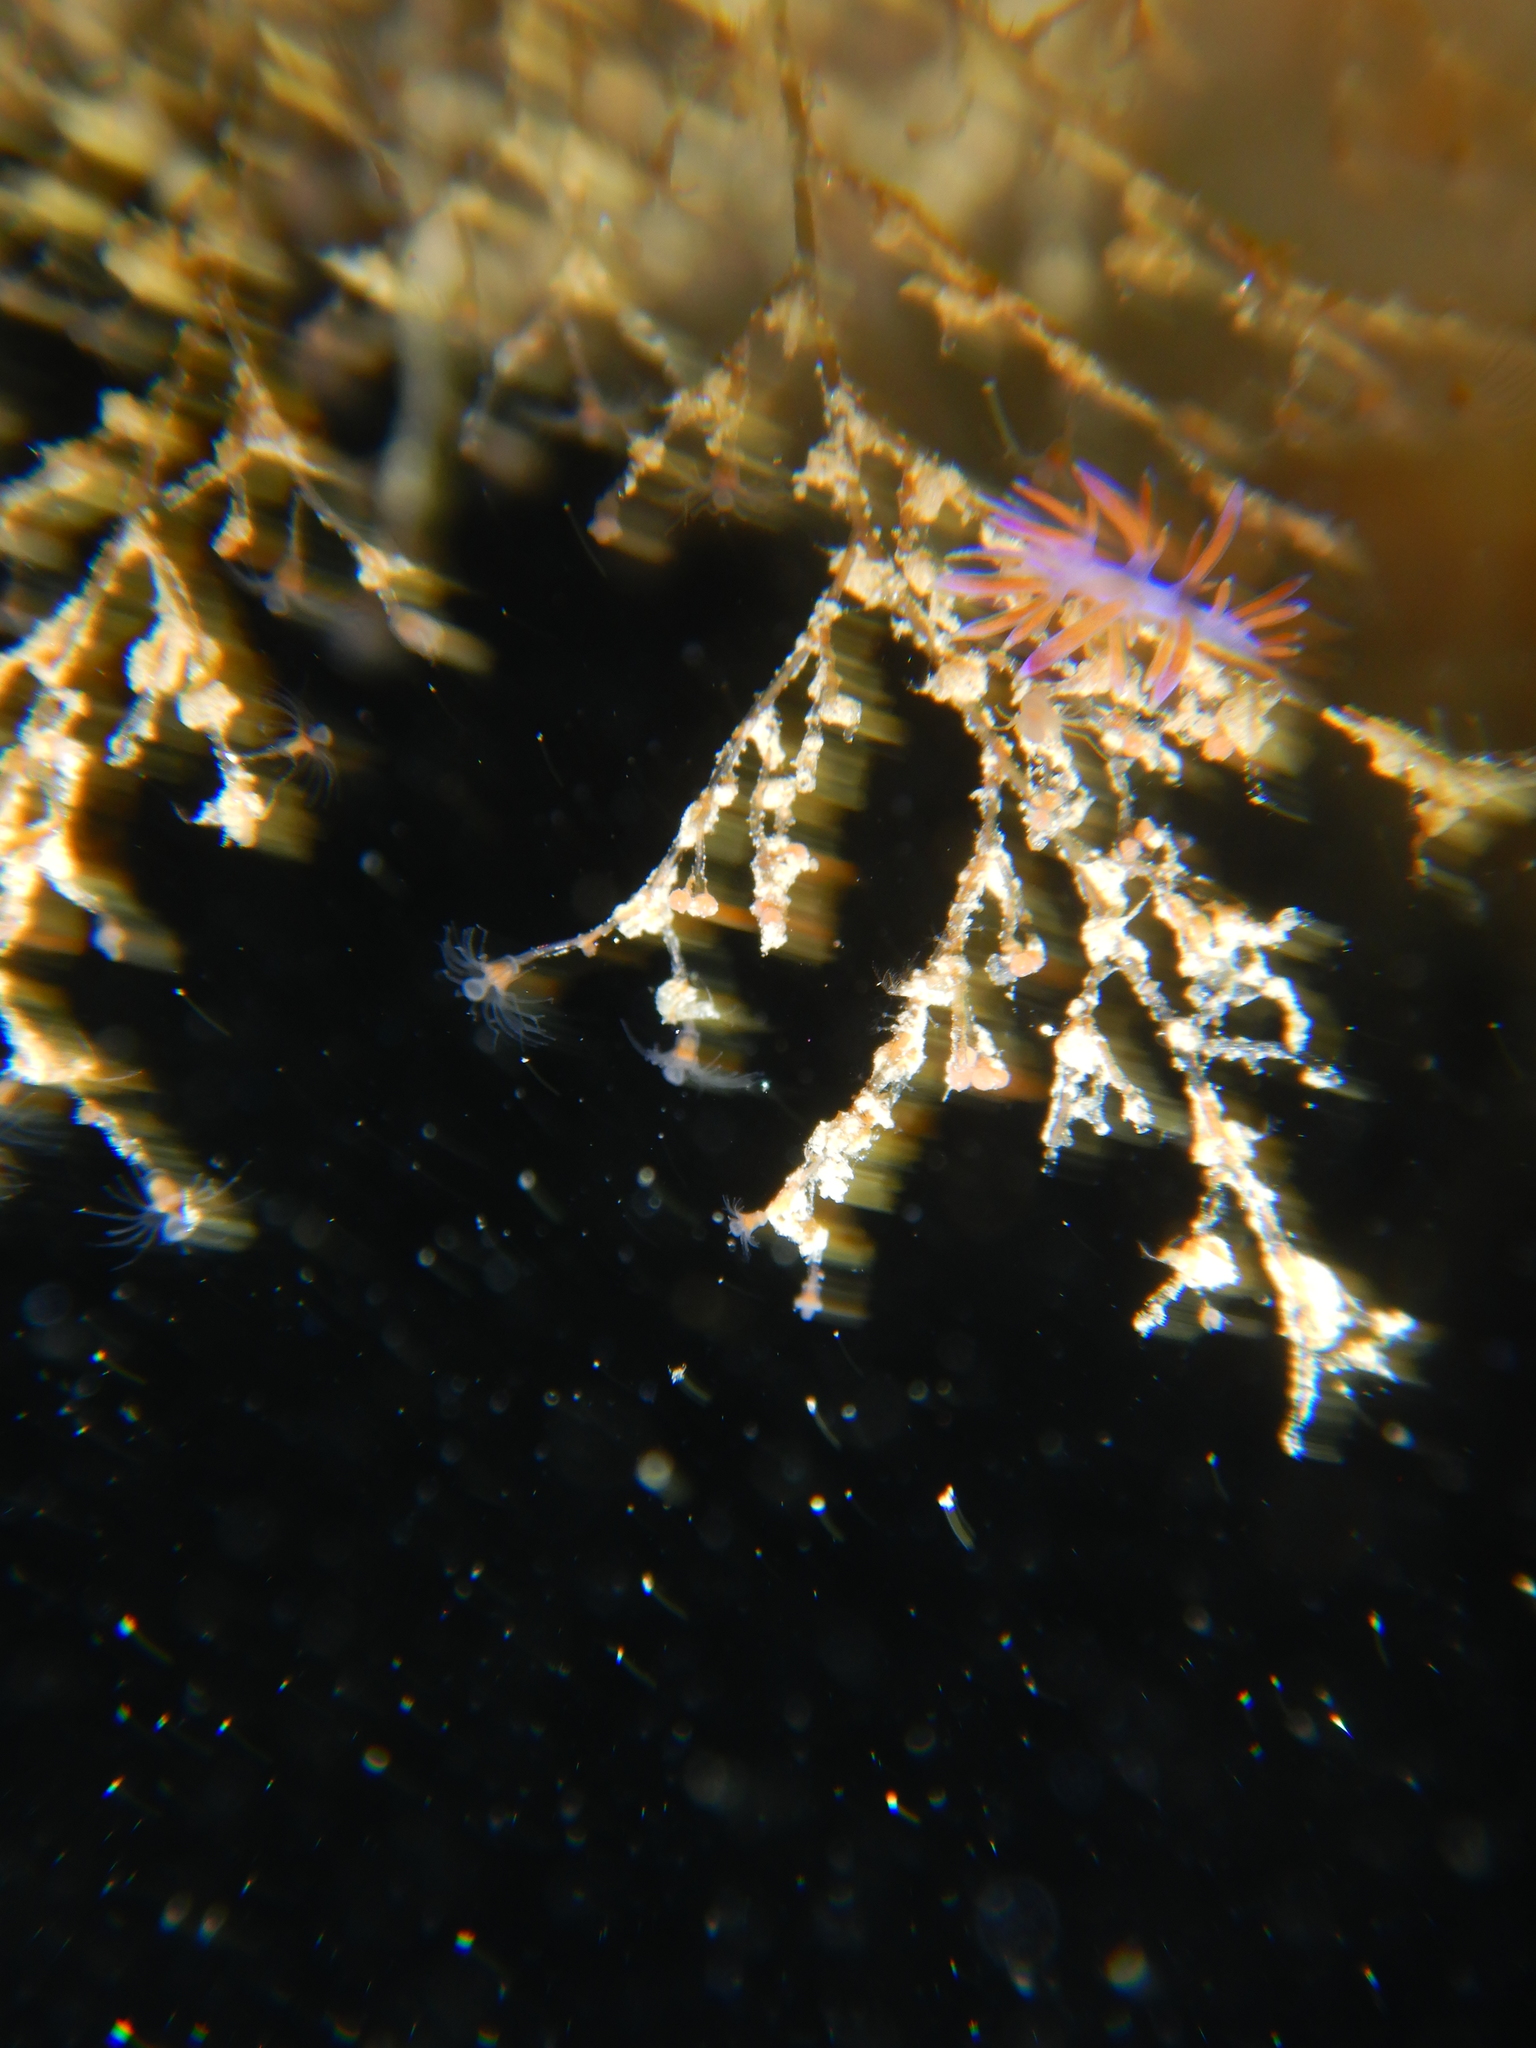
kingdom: Animalia
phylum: Mollusca
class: Gastropoda
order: Nudibranchia
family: Flabellinidae
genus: Flabellina
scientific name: Flabellina affinis
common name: Mediterranean violet aeolid
